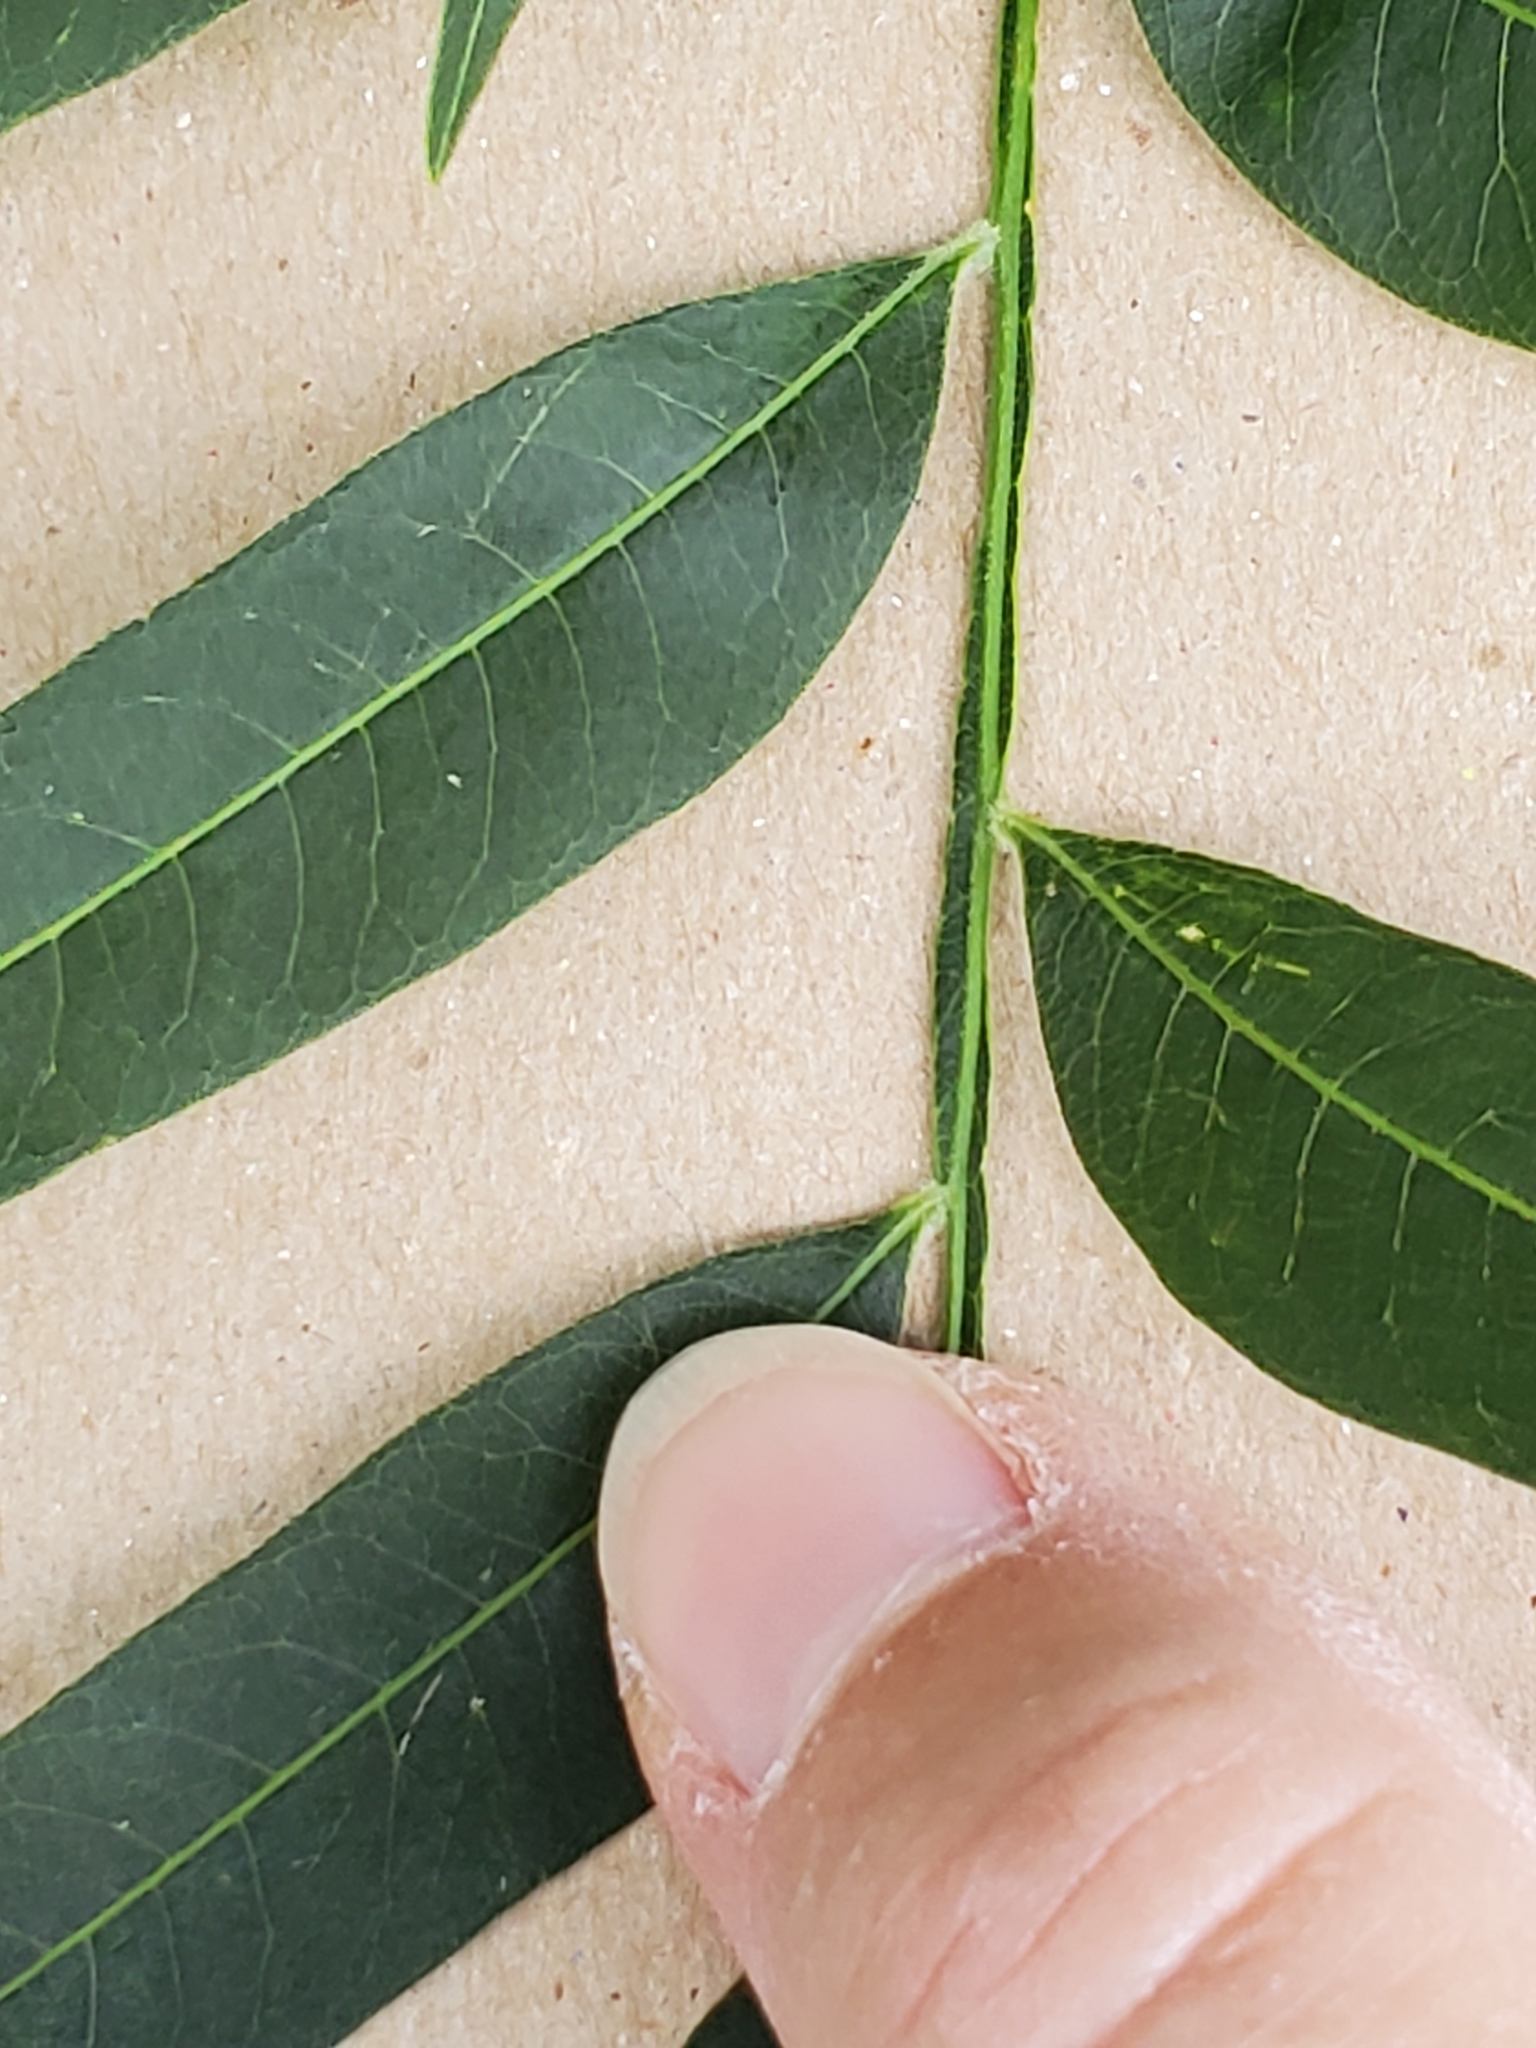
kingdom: Plantae
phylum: Tracheophyta
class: Magnoliopsida
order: Sapindales
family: Sapindaceae
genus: Sapindus
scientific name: Sapindus drummondii
